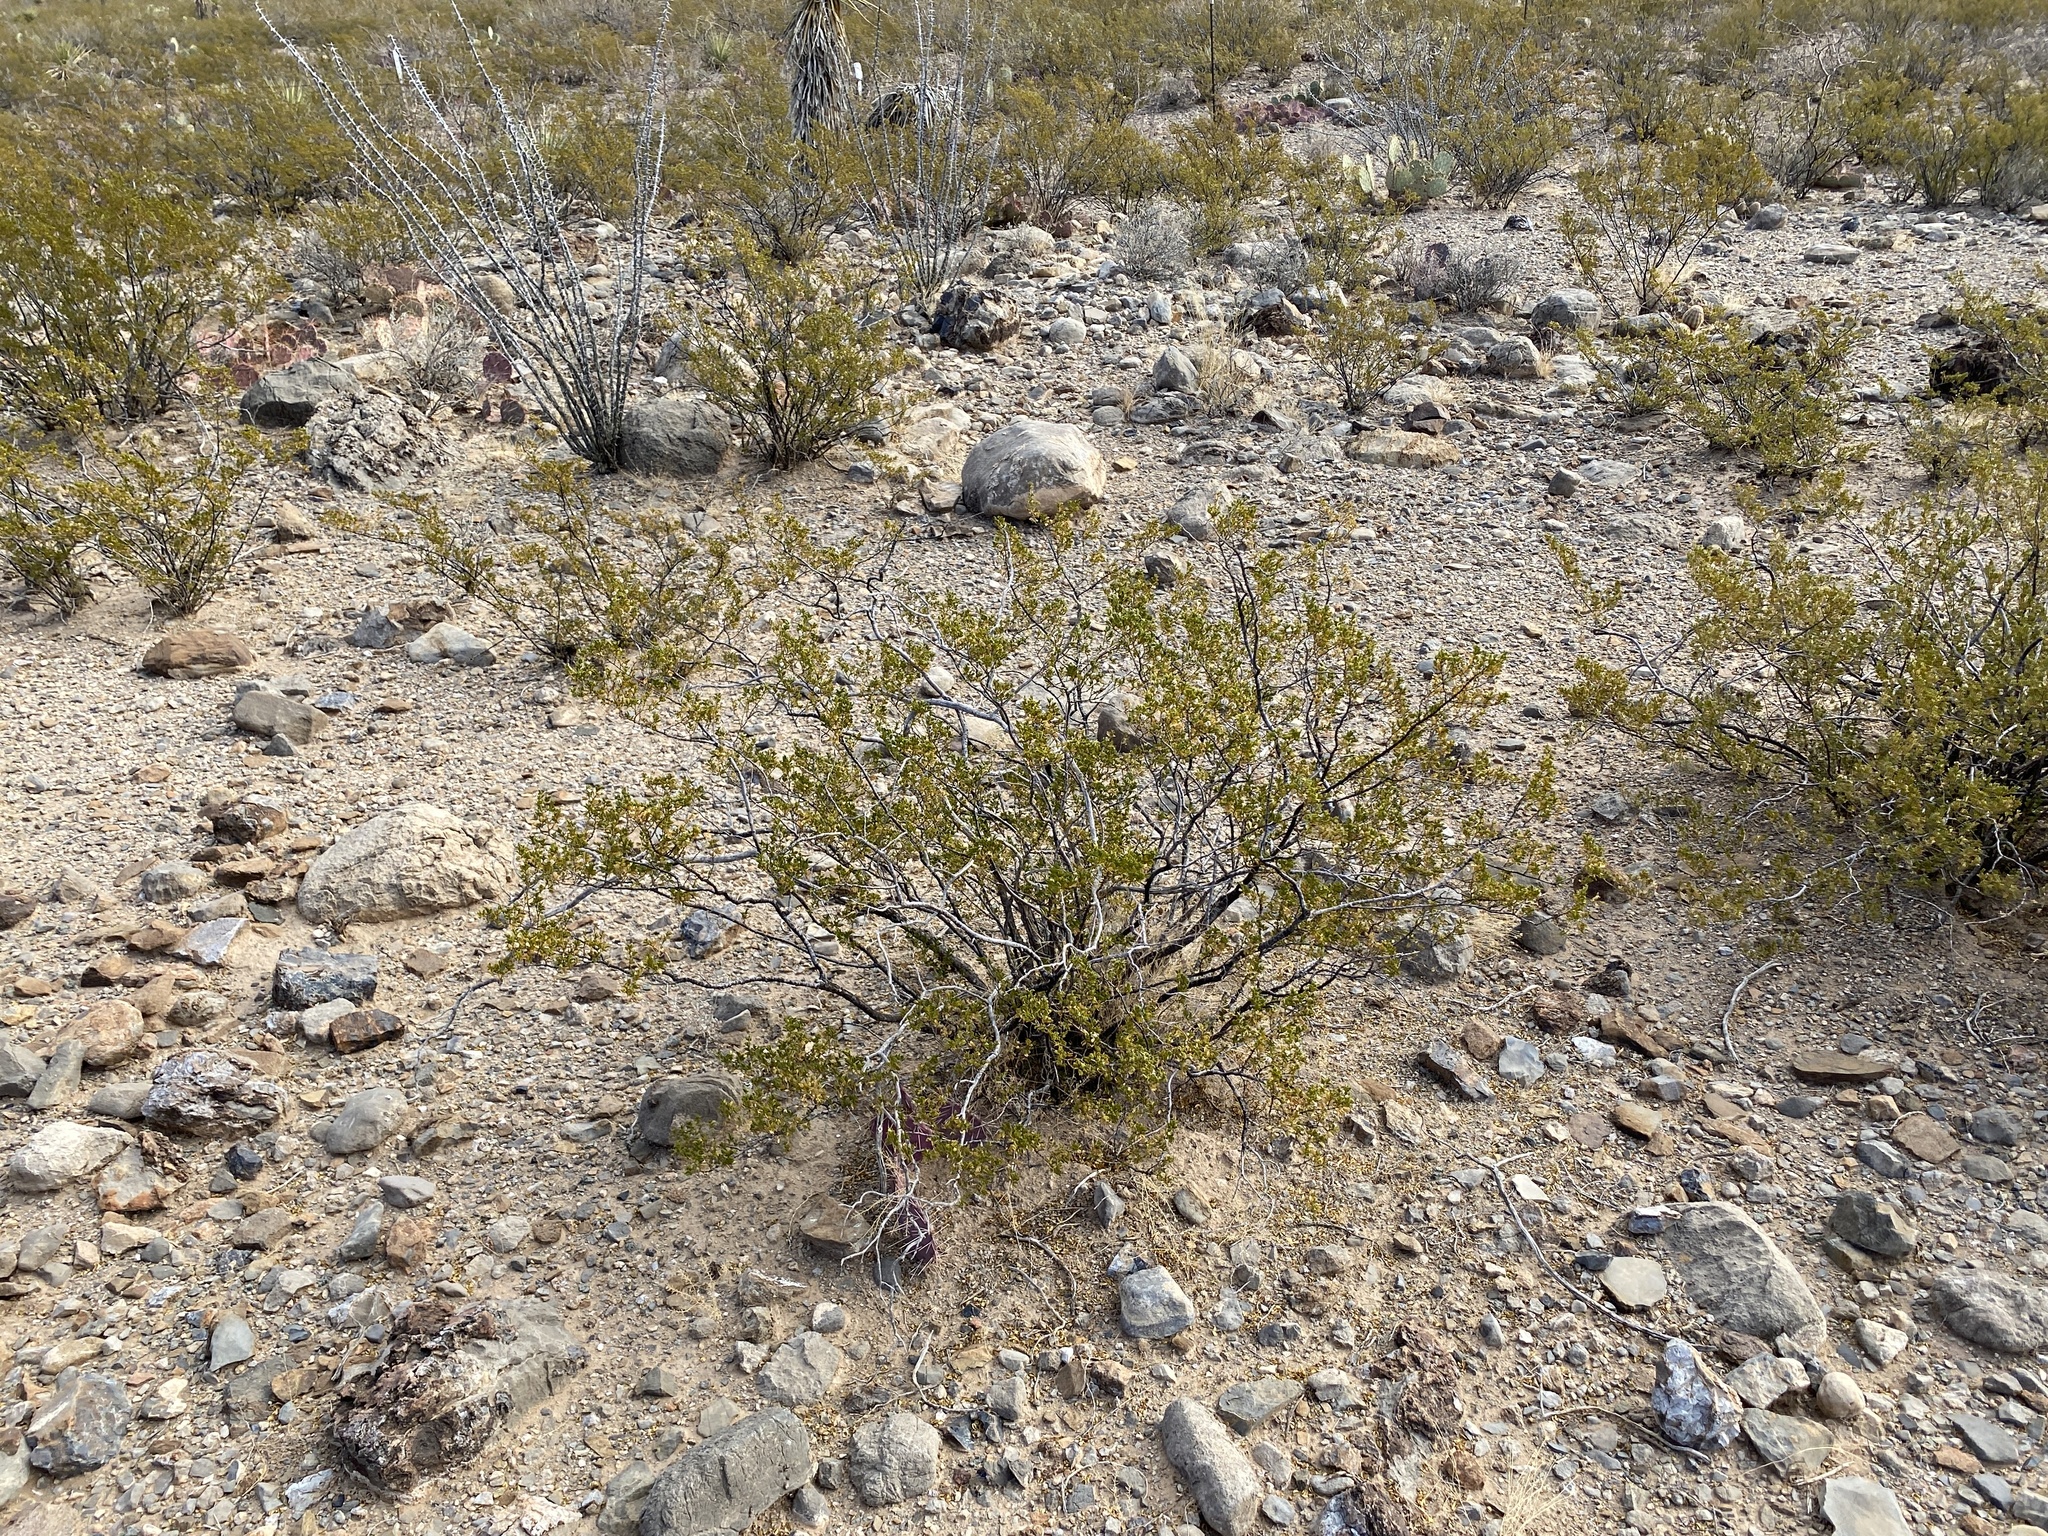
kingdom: Plantae
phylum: Tracheophyta
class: Magnoliopsida
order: Zygophyllales
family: Zygophyllaceae
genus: Larrea
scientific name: Larrea tridentata
